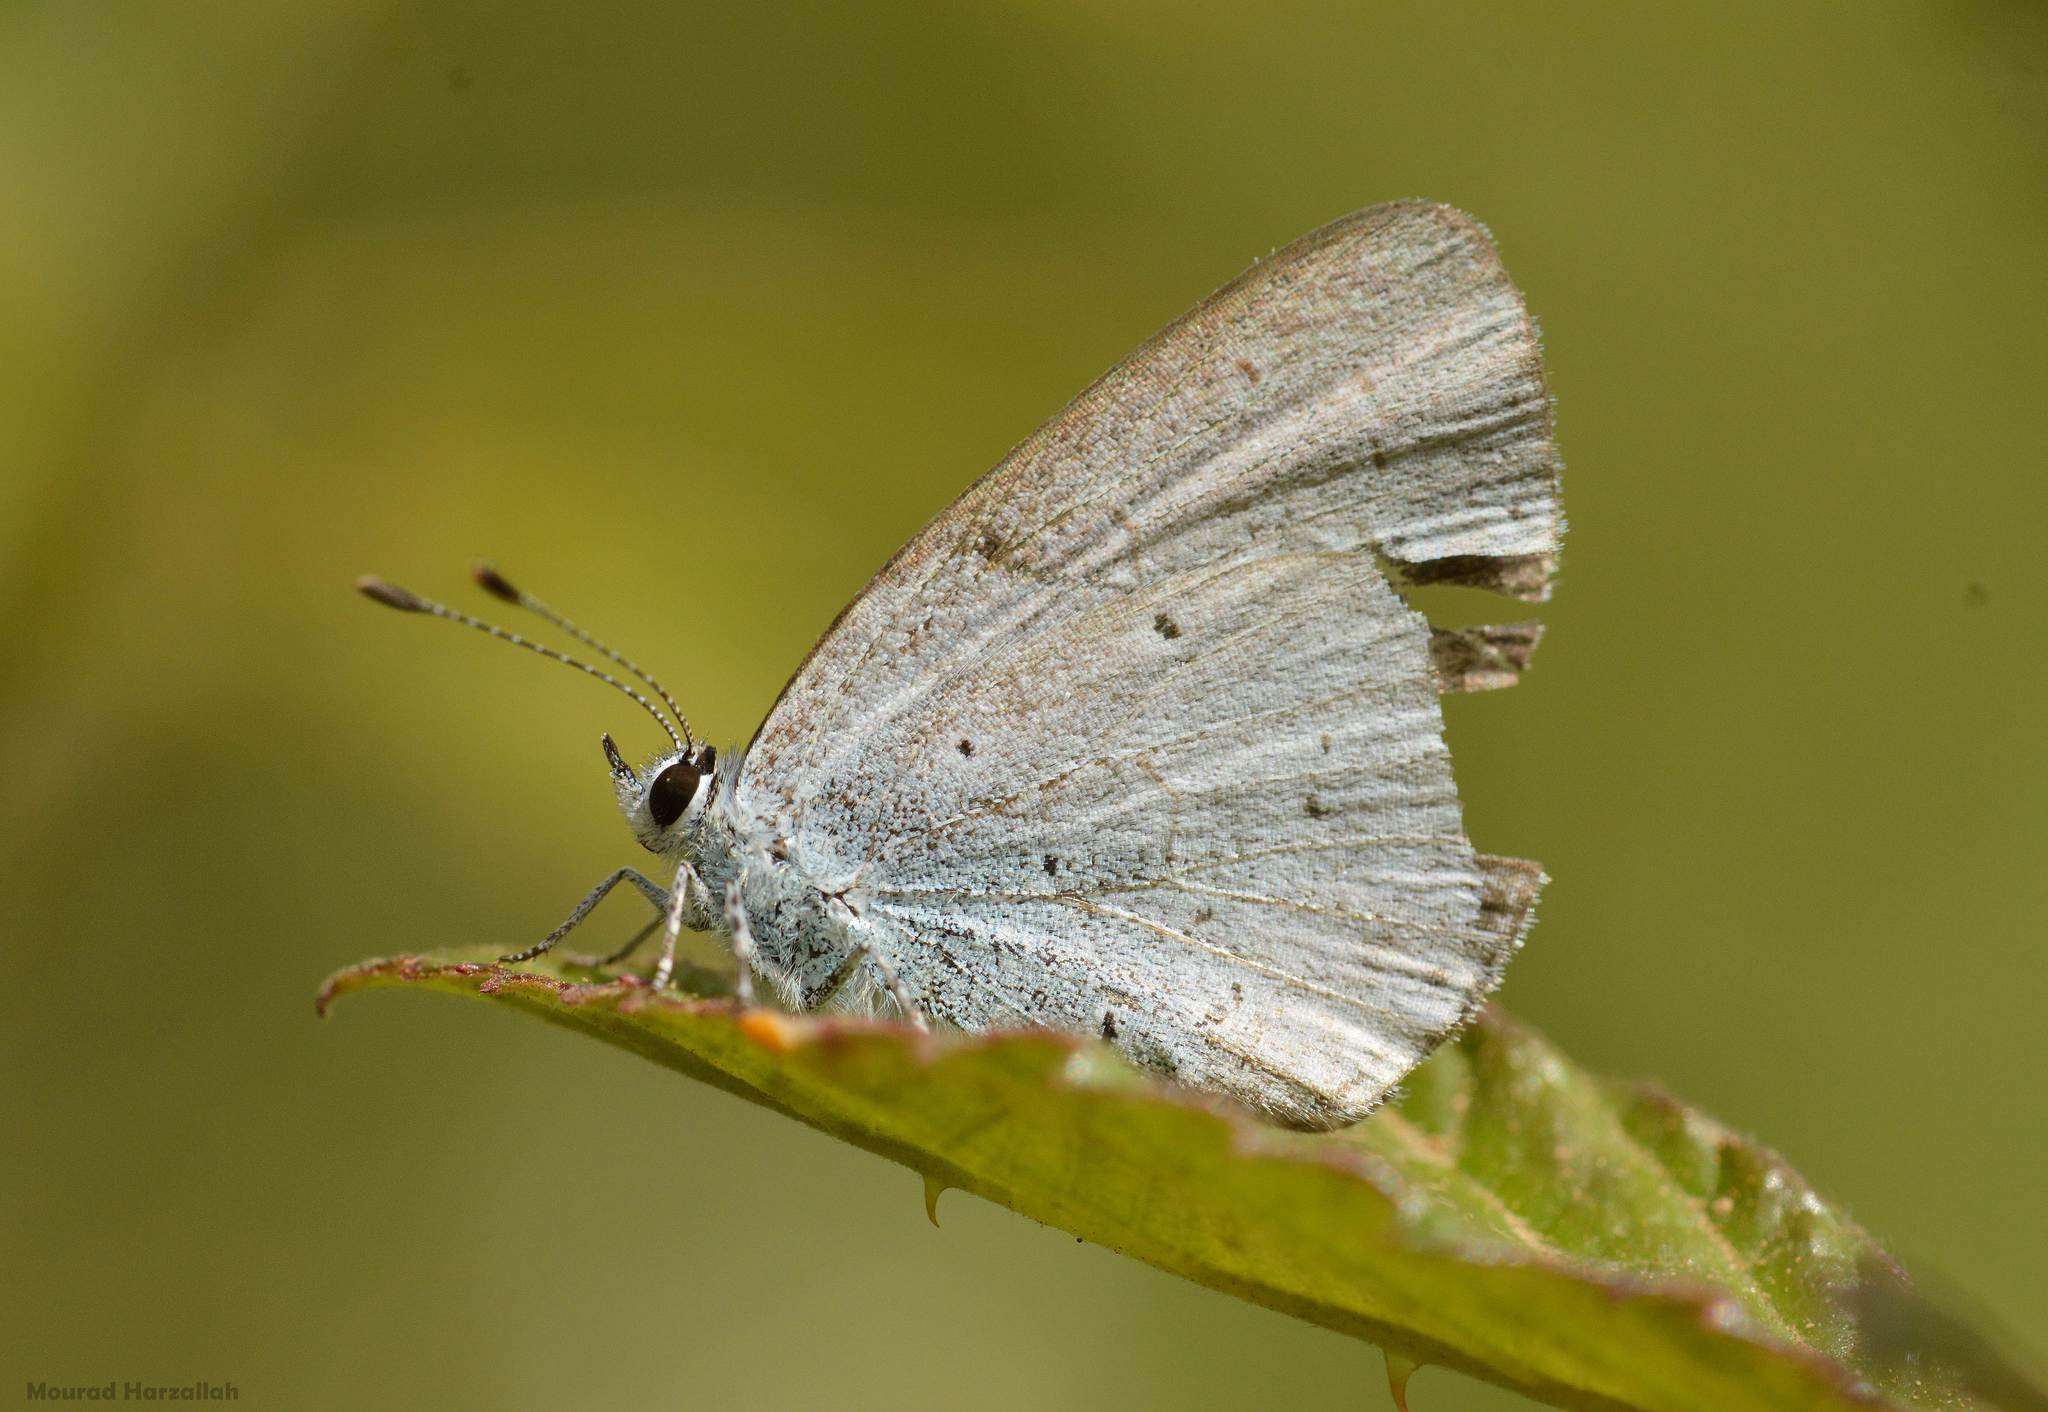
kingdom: Animalia
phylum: Arthropoda
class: Insecta
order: Lepidoptera
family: Lycaenidae
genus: Celastrina
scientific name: Celastrina argiolus
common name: Holly blue
